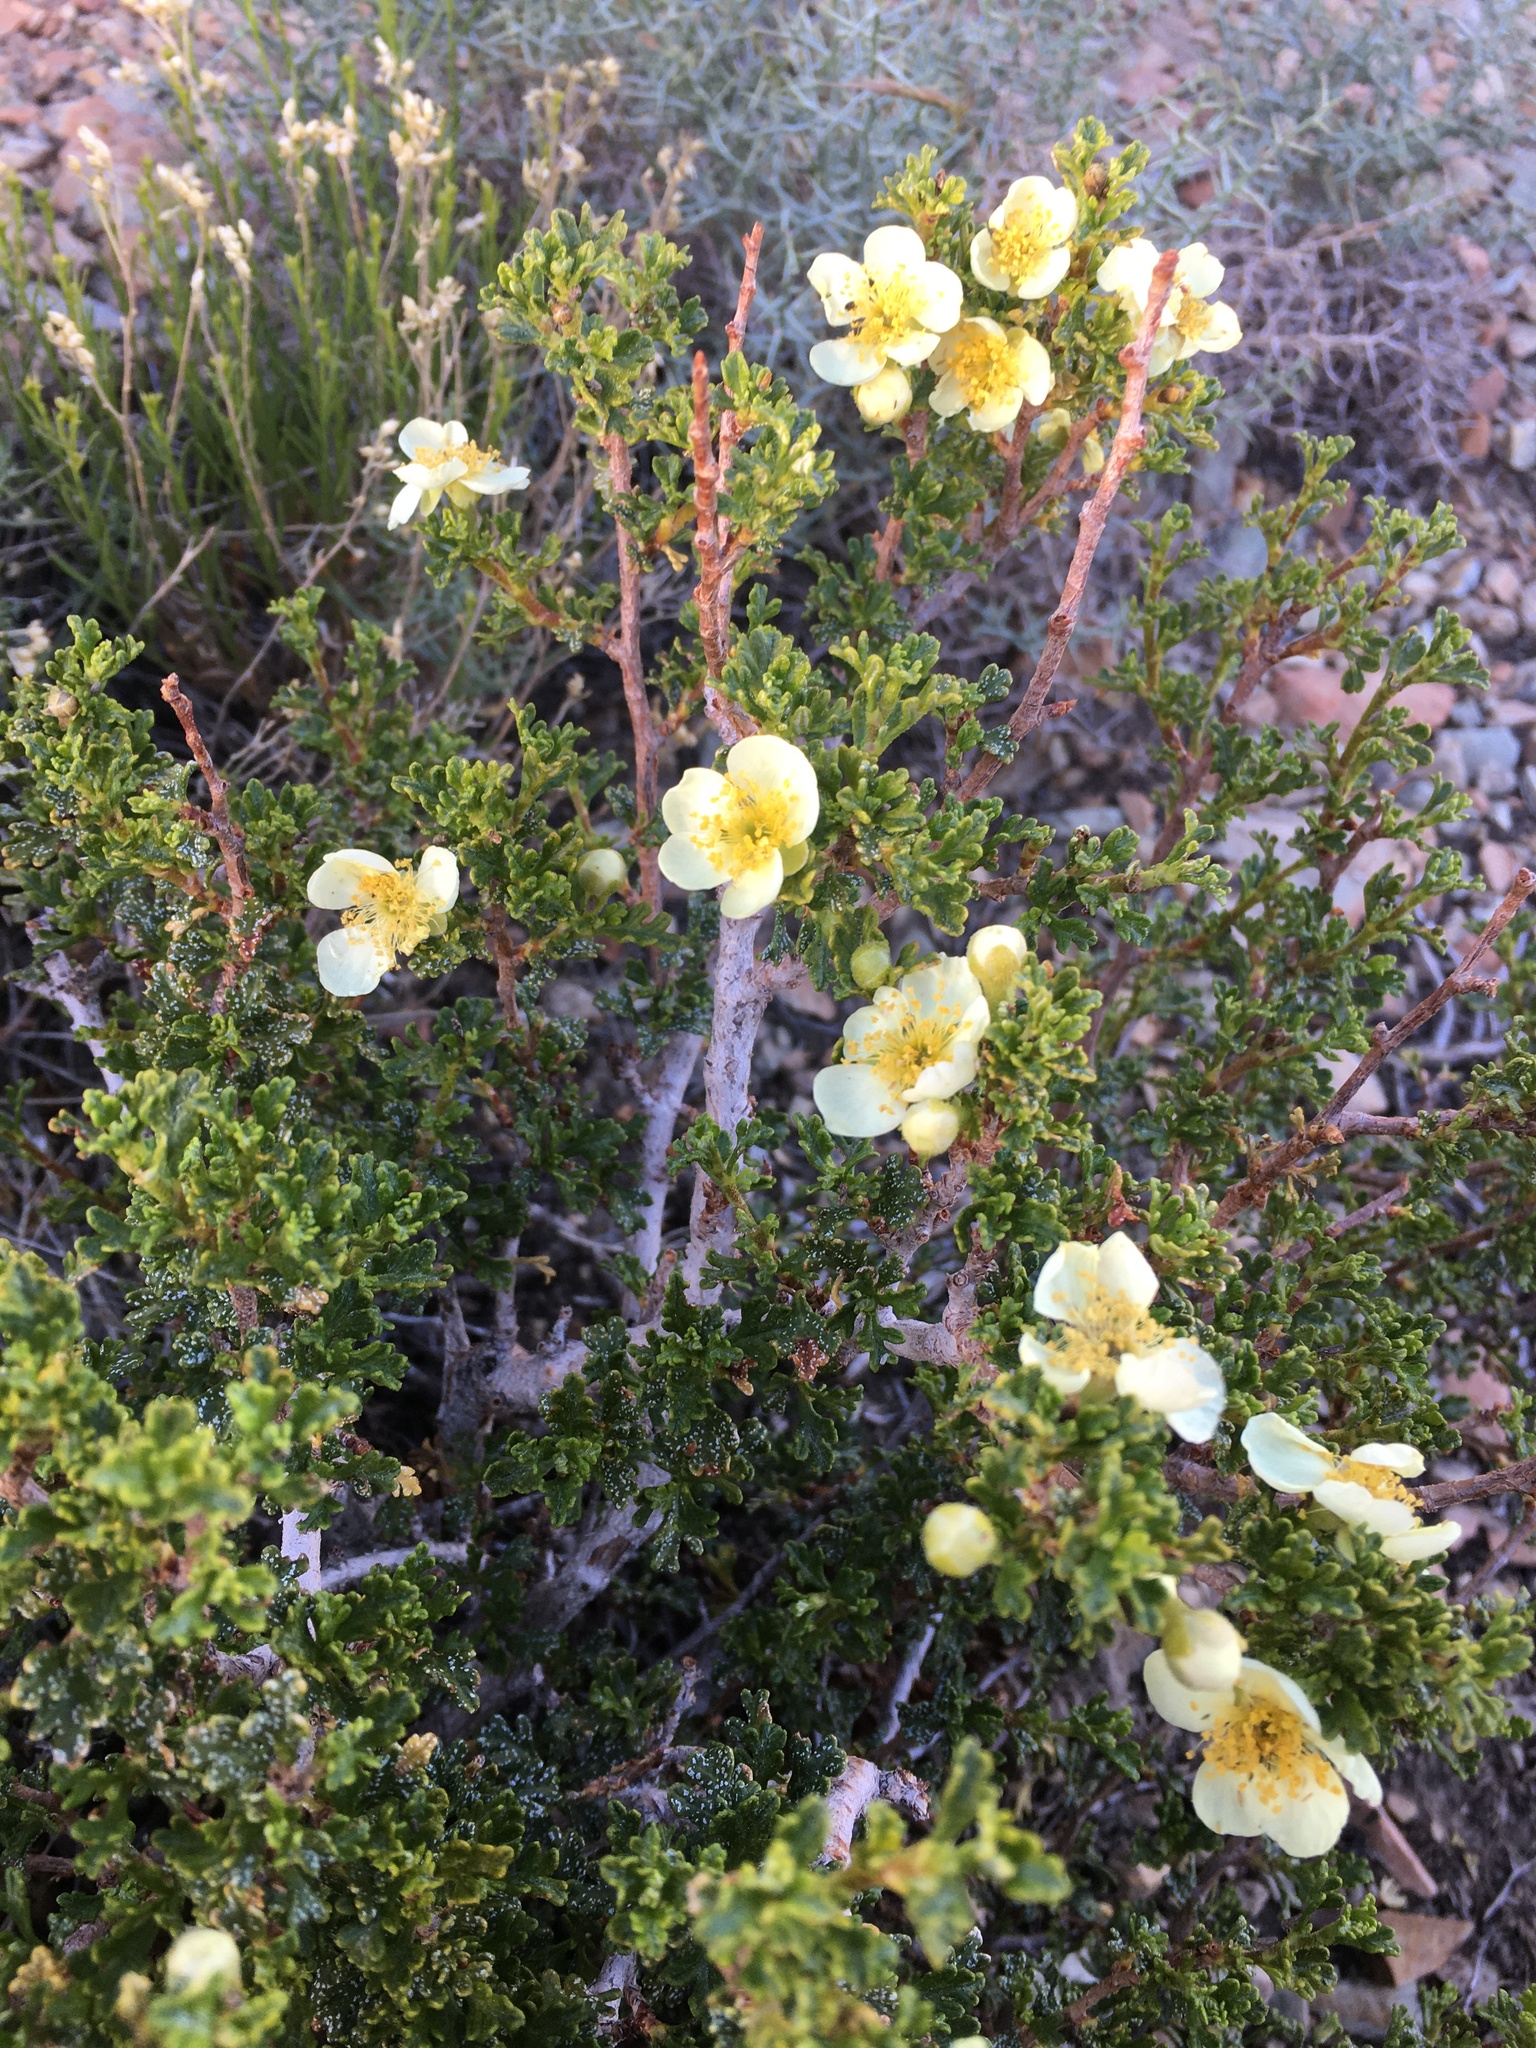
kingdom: Plantae
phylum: Tracheophyta
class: Magnoliopsida
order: Rosales
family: Rosaceae
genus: Purshia
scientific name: Purshia stansburiana
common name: Stansbury's cliffrose
